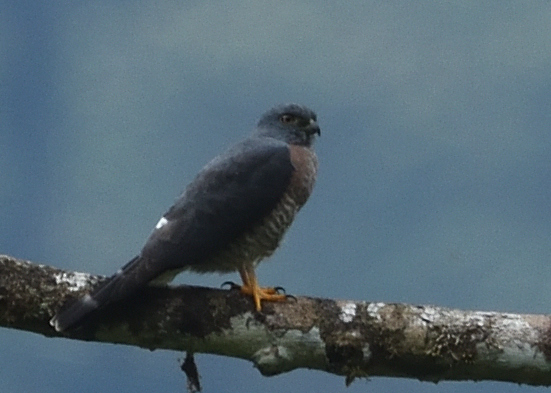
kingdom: Animalia
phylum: Chordata
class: Aves
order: Accipitriformes
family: Accipitridae
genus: Harpagus
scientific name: Harpagus bidentatus
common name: Double-toothed kite
